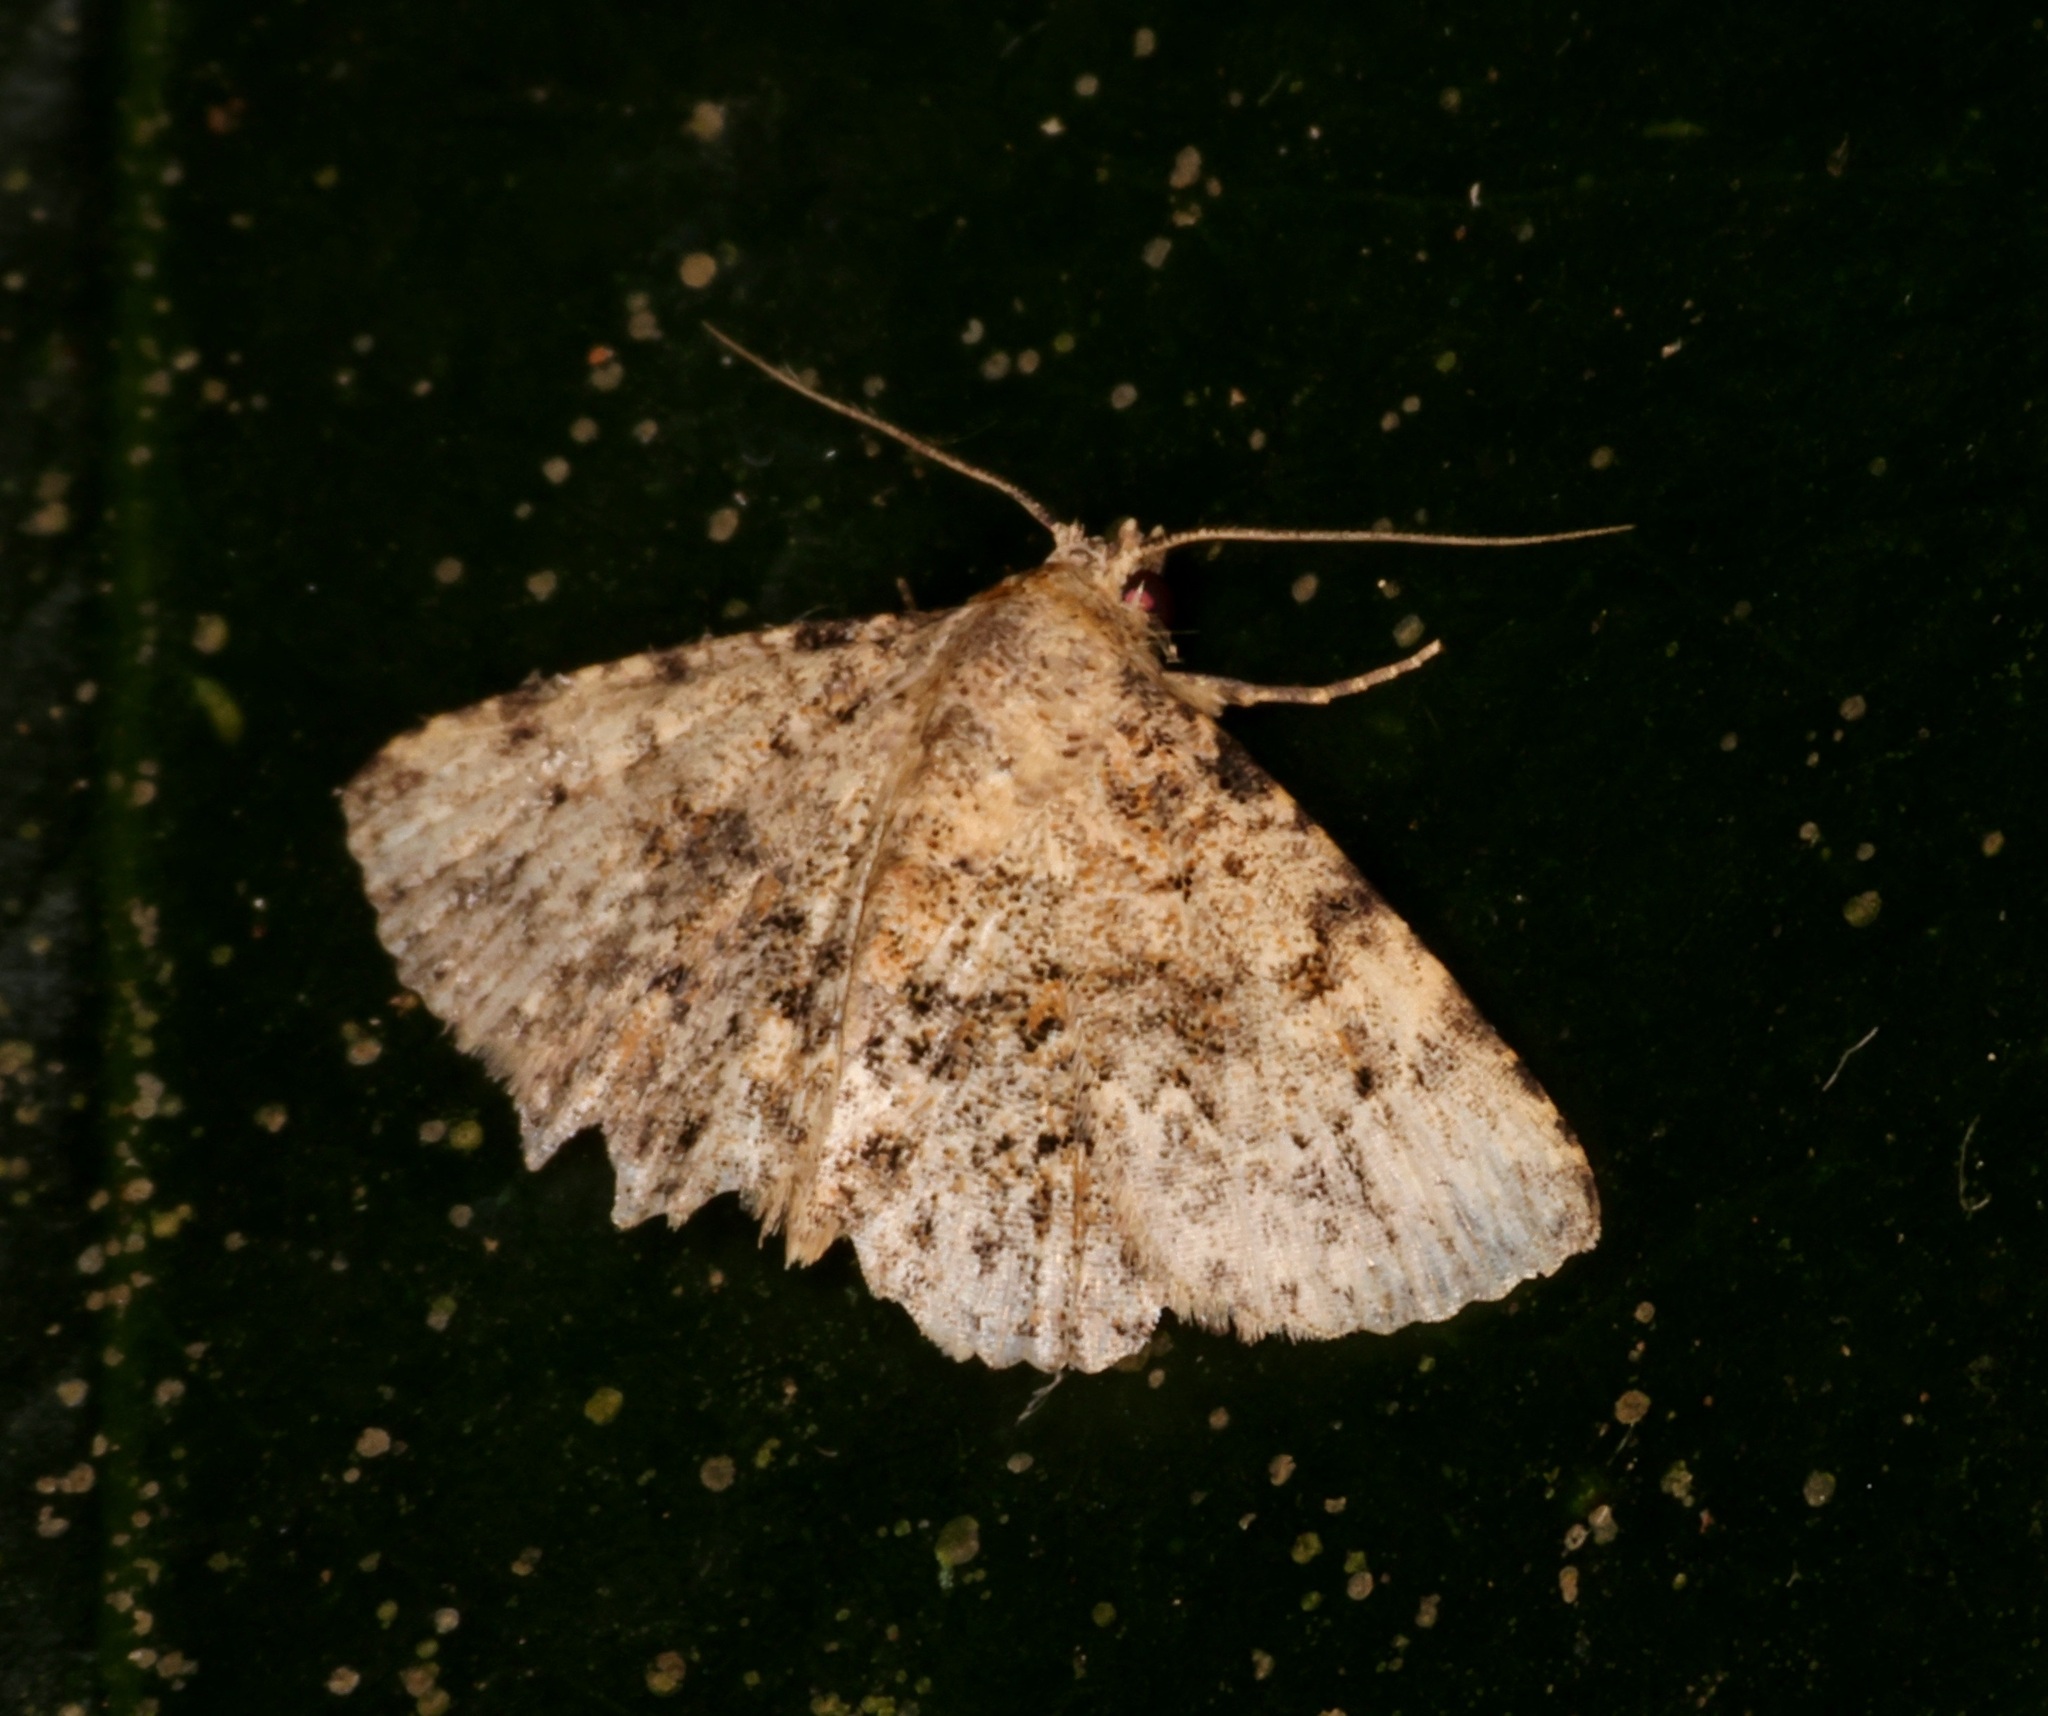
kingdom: Animalia
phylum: Arthropoda
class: Insecta
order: Lepidoptera
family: Erebidae
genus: Panilla
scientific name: Panilla poliochroa
